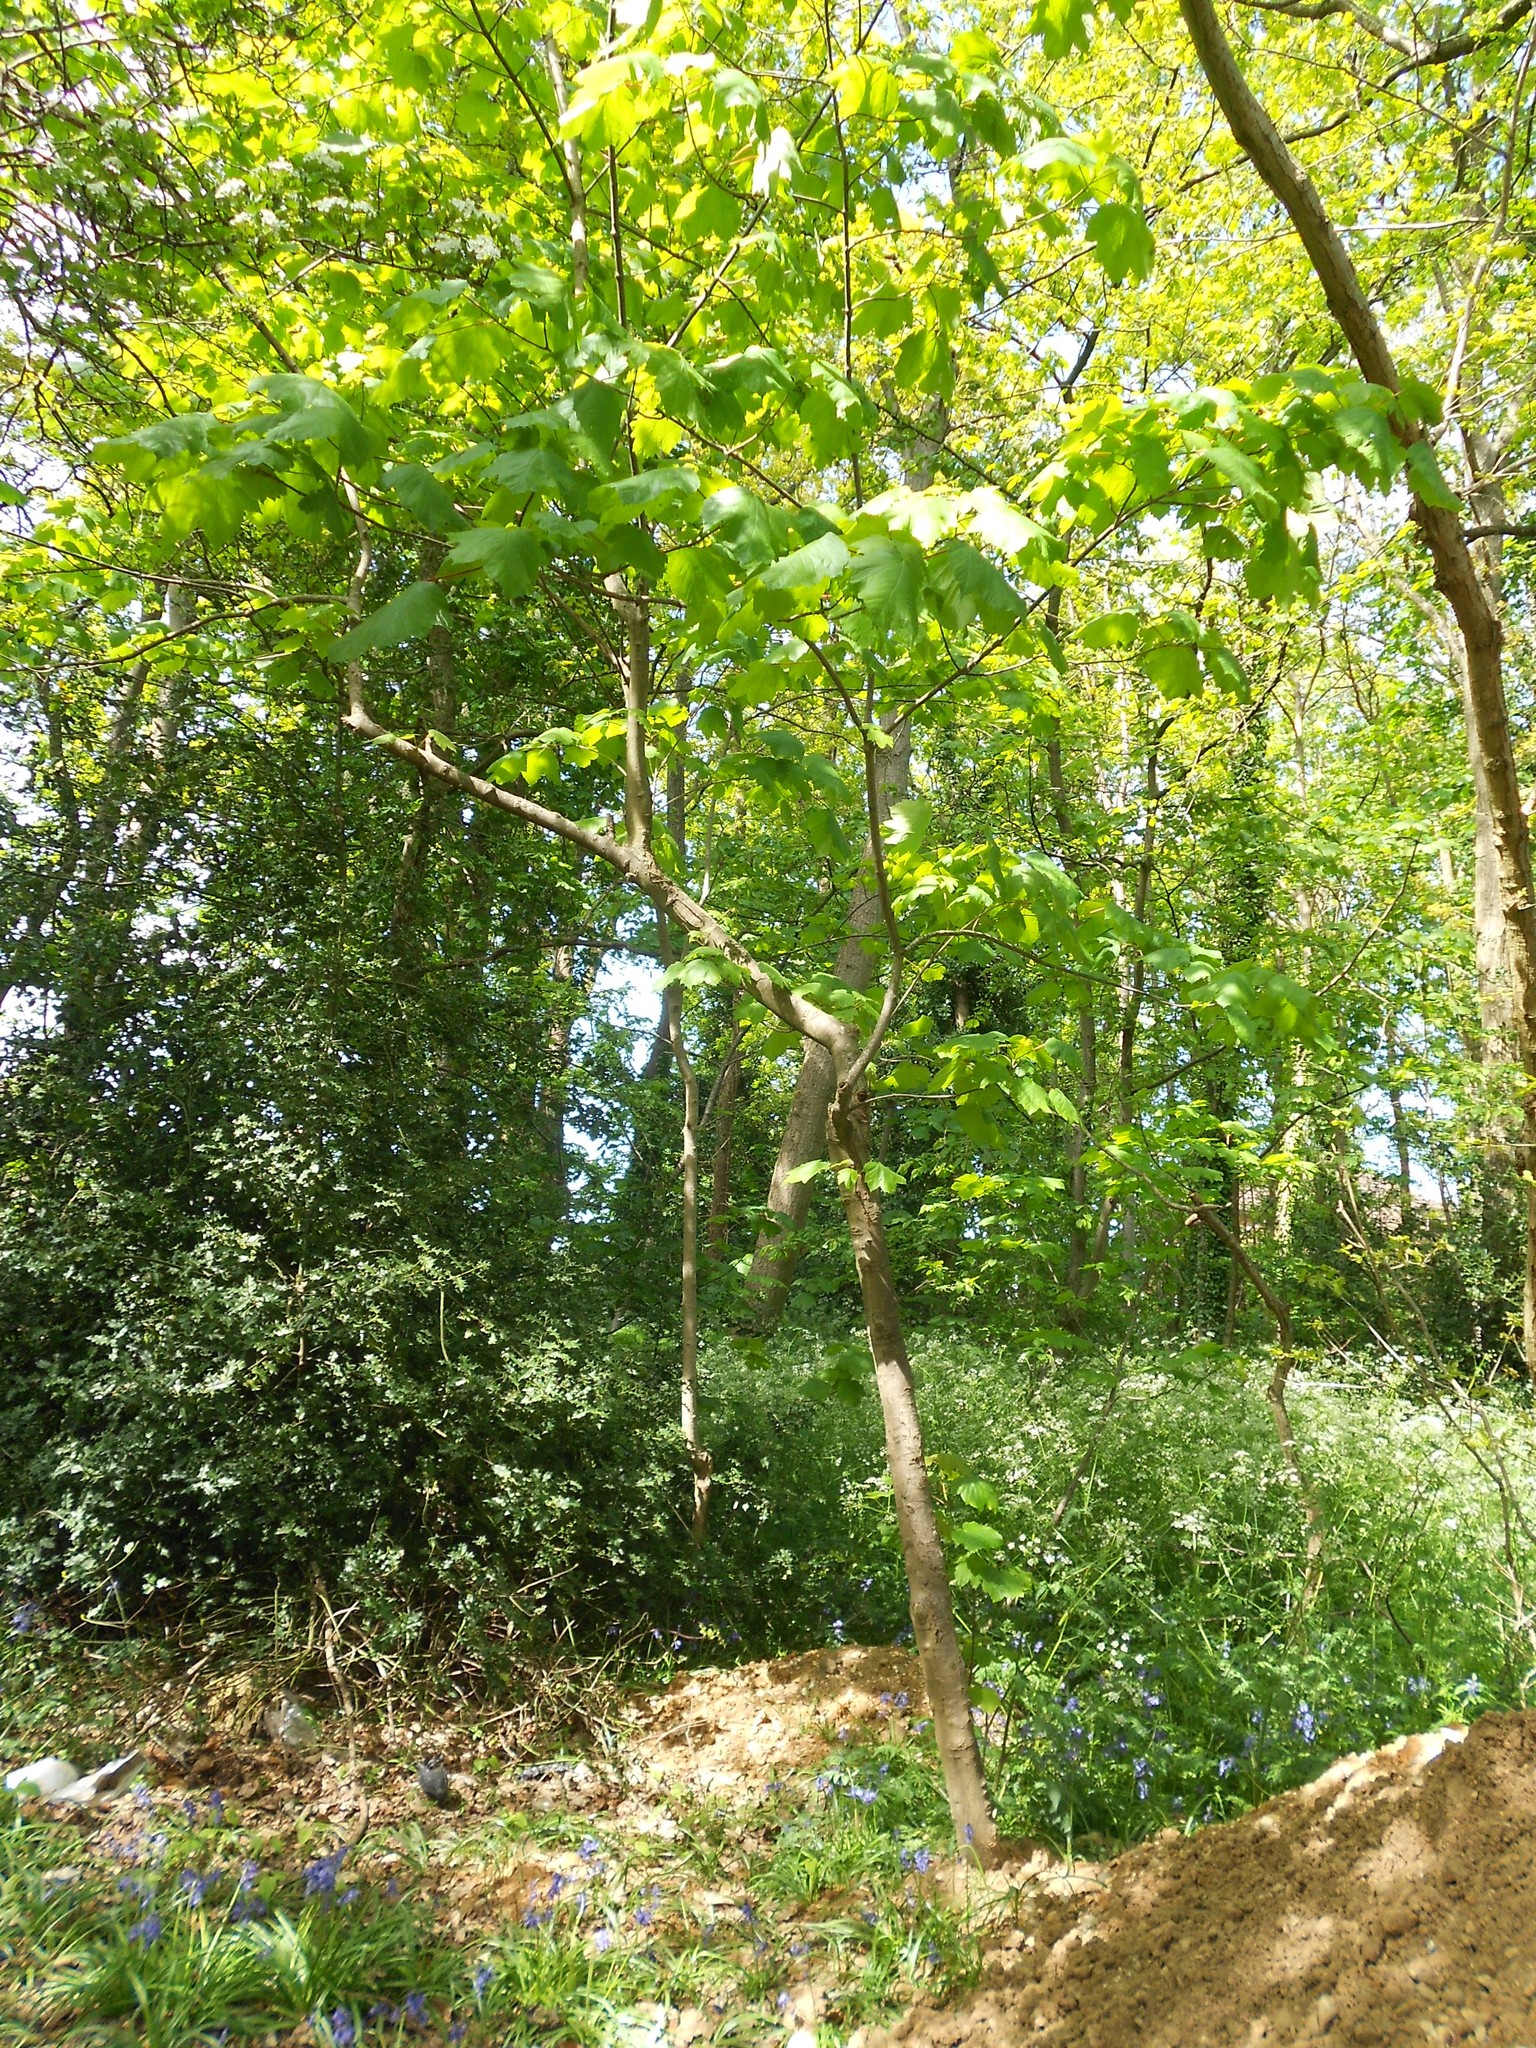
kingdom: Plantae
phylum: Tracheophyta
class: Magnoliopsida
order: Sapindales
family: Sapindaceae
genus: Acer
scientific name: Acer pseudoplatanus
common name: Sycamore
